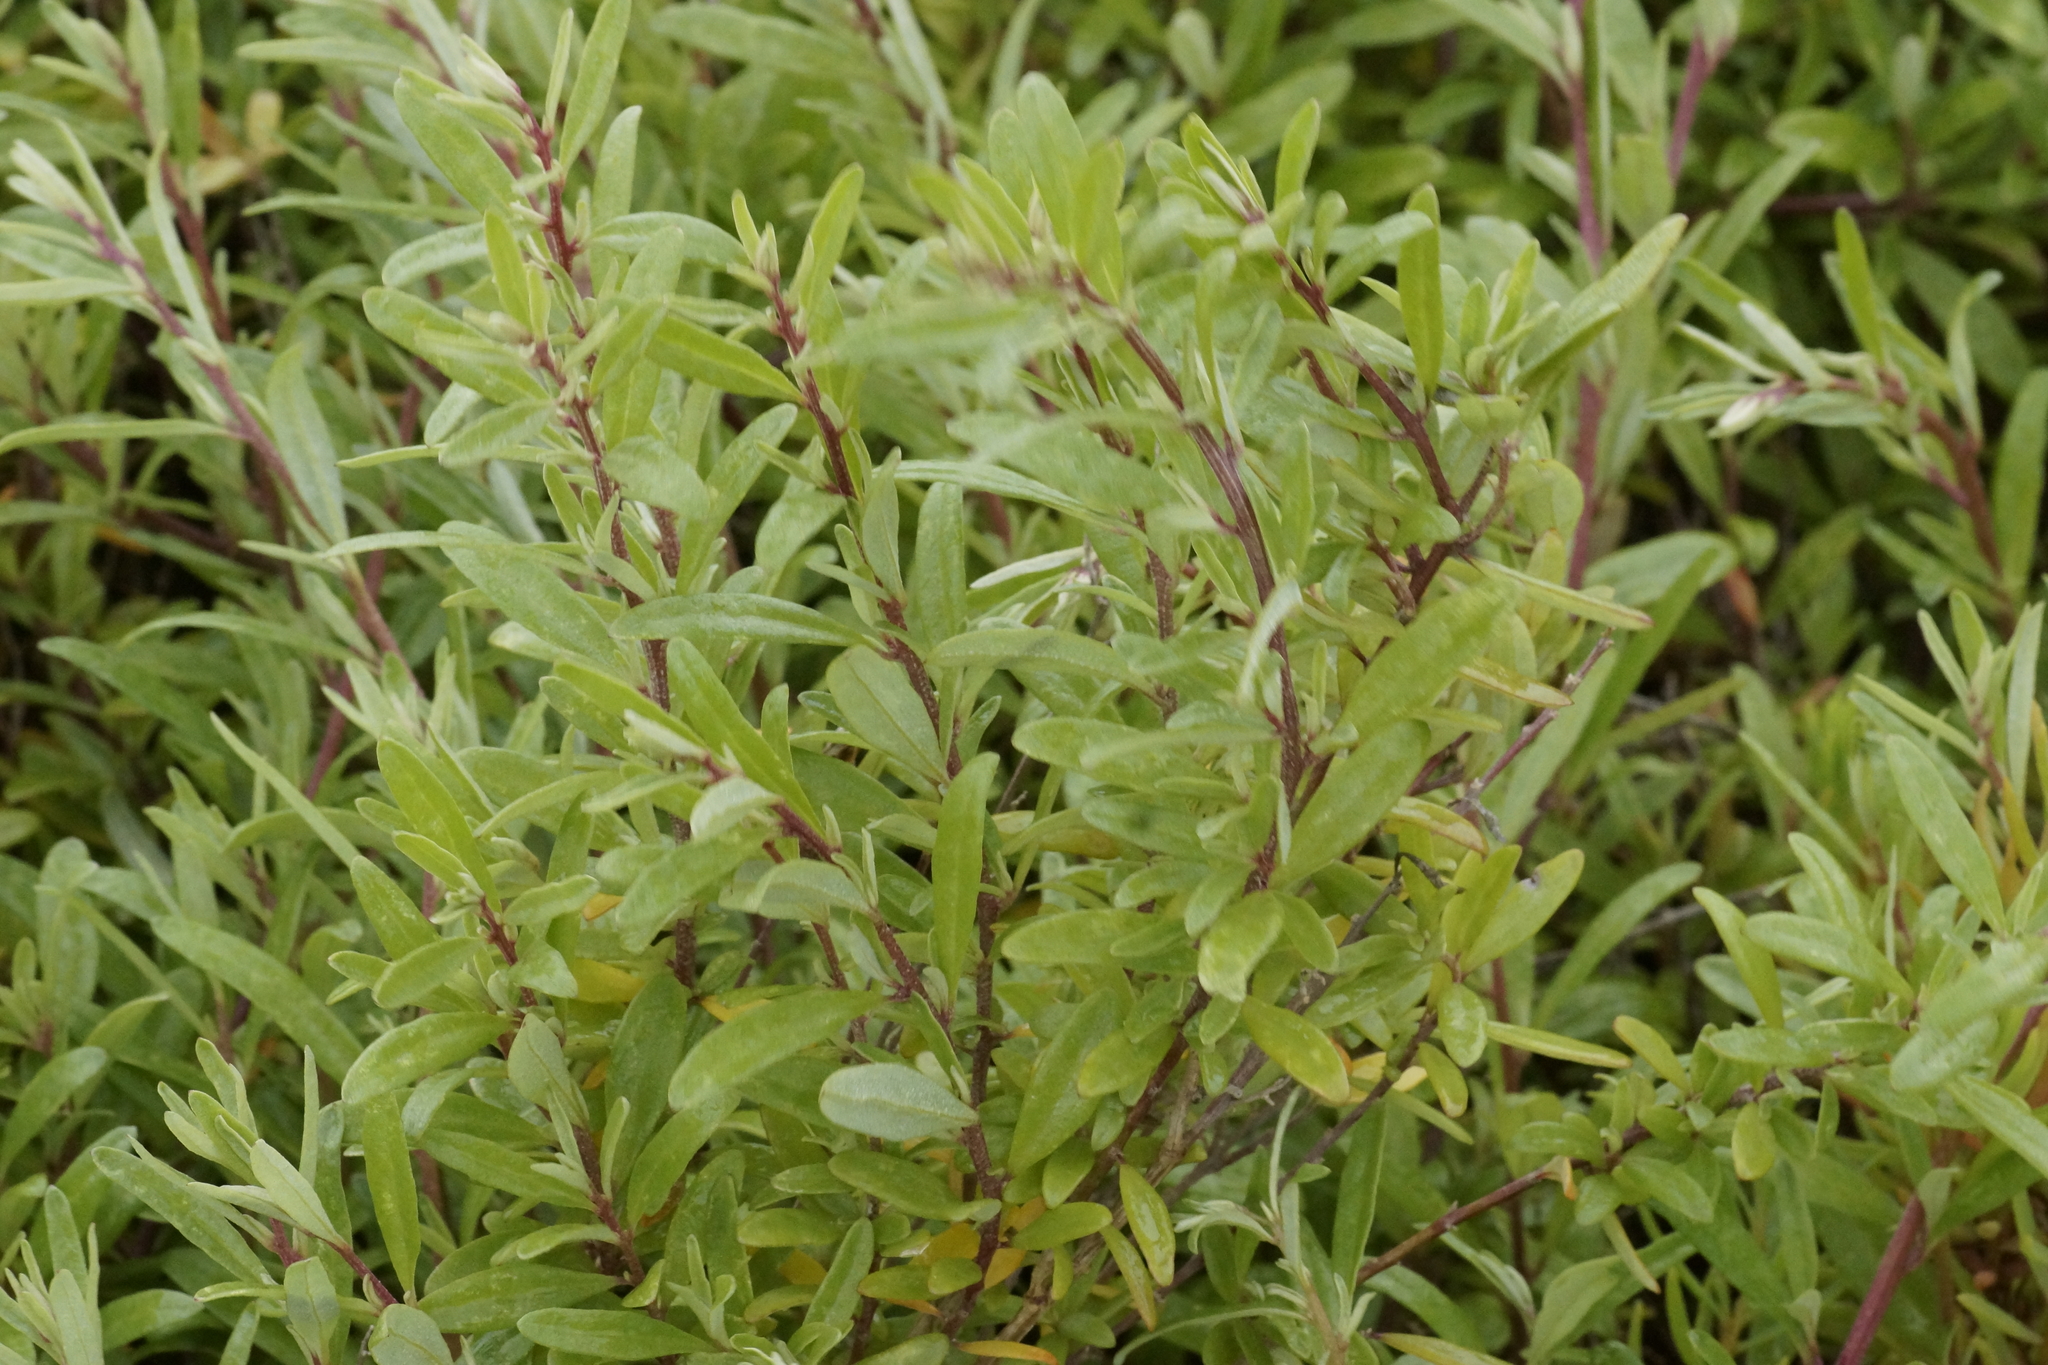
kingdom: Plantae
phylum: Tracheophyta
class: Magnoliopsida
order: Caryophyllales
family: Amaranthaceae
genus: Atriplex
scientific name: Atriplex paludosa
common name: Marsh saltbush
